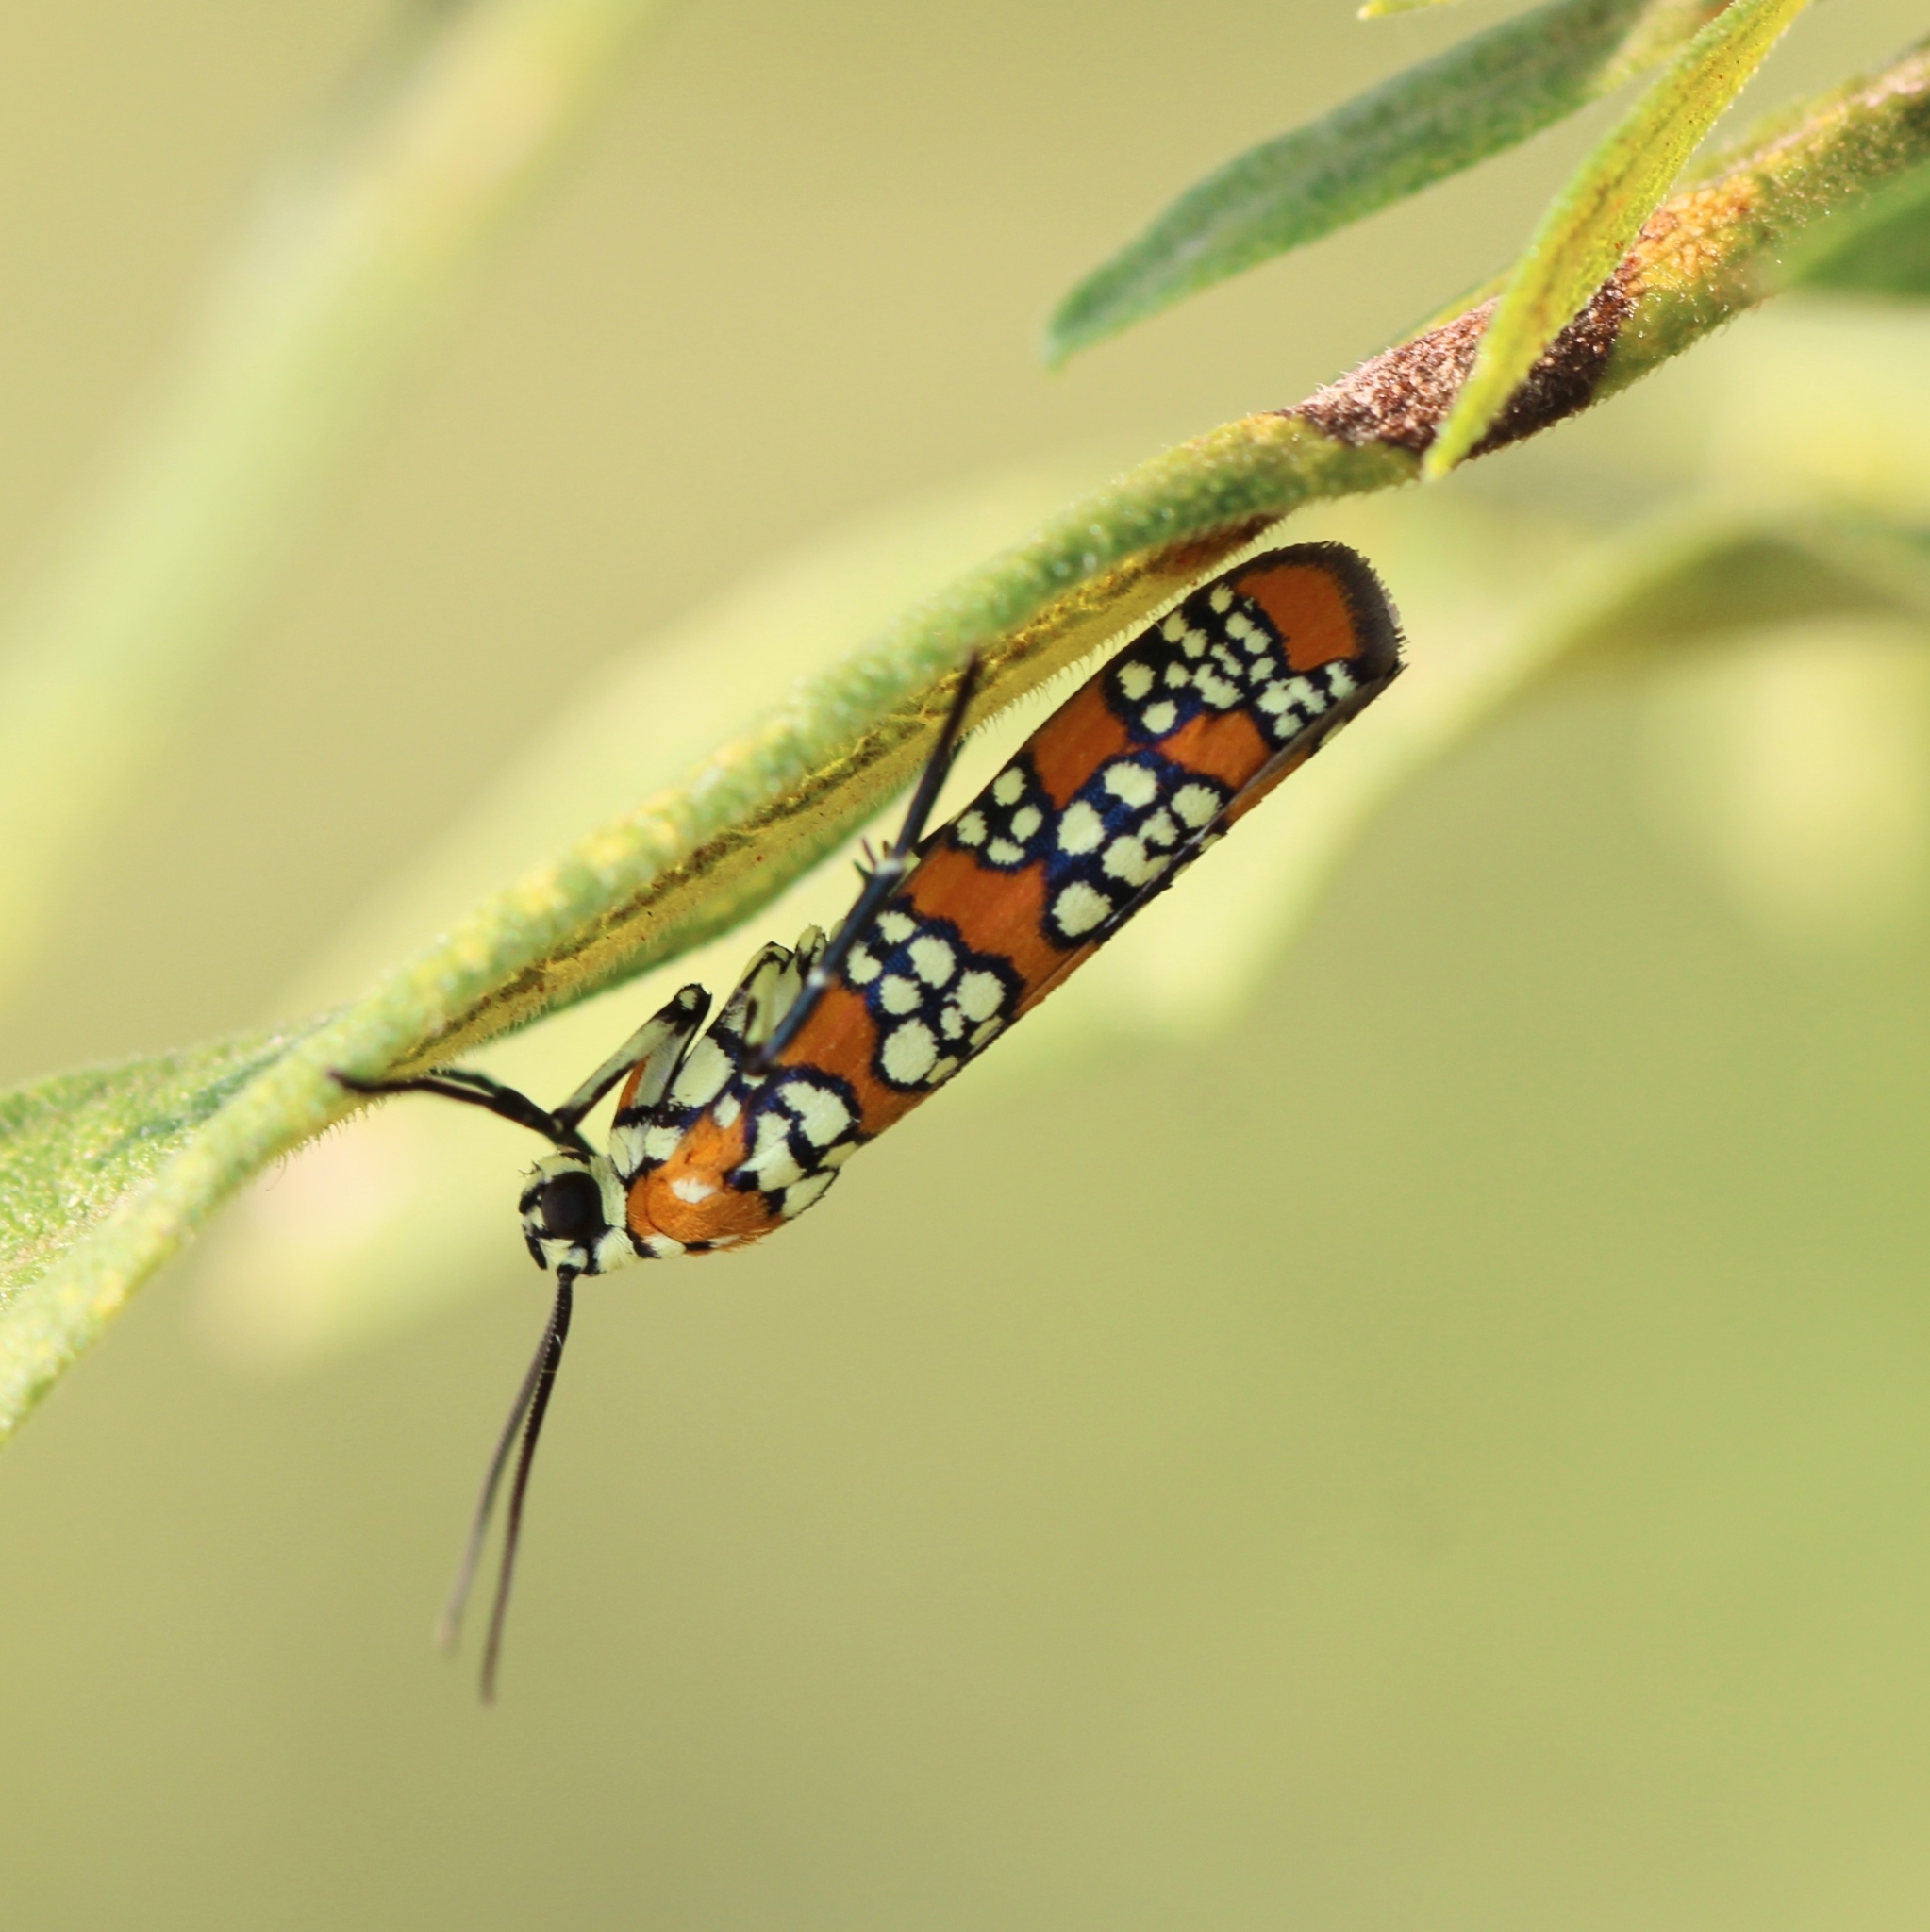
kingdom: Animalia
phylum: Arthropoda
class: Insecta
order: Lepidoptera
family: Attevidae
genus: Atteva
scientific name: Atteva punctella
